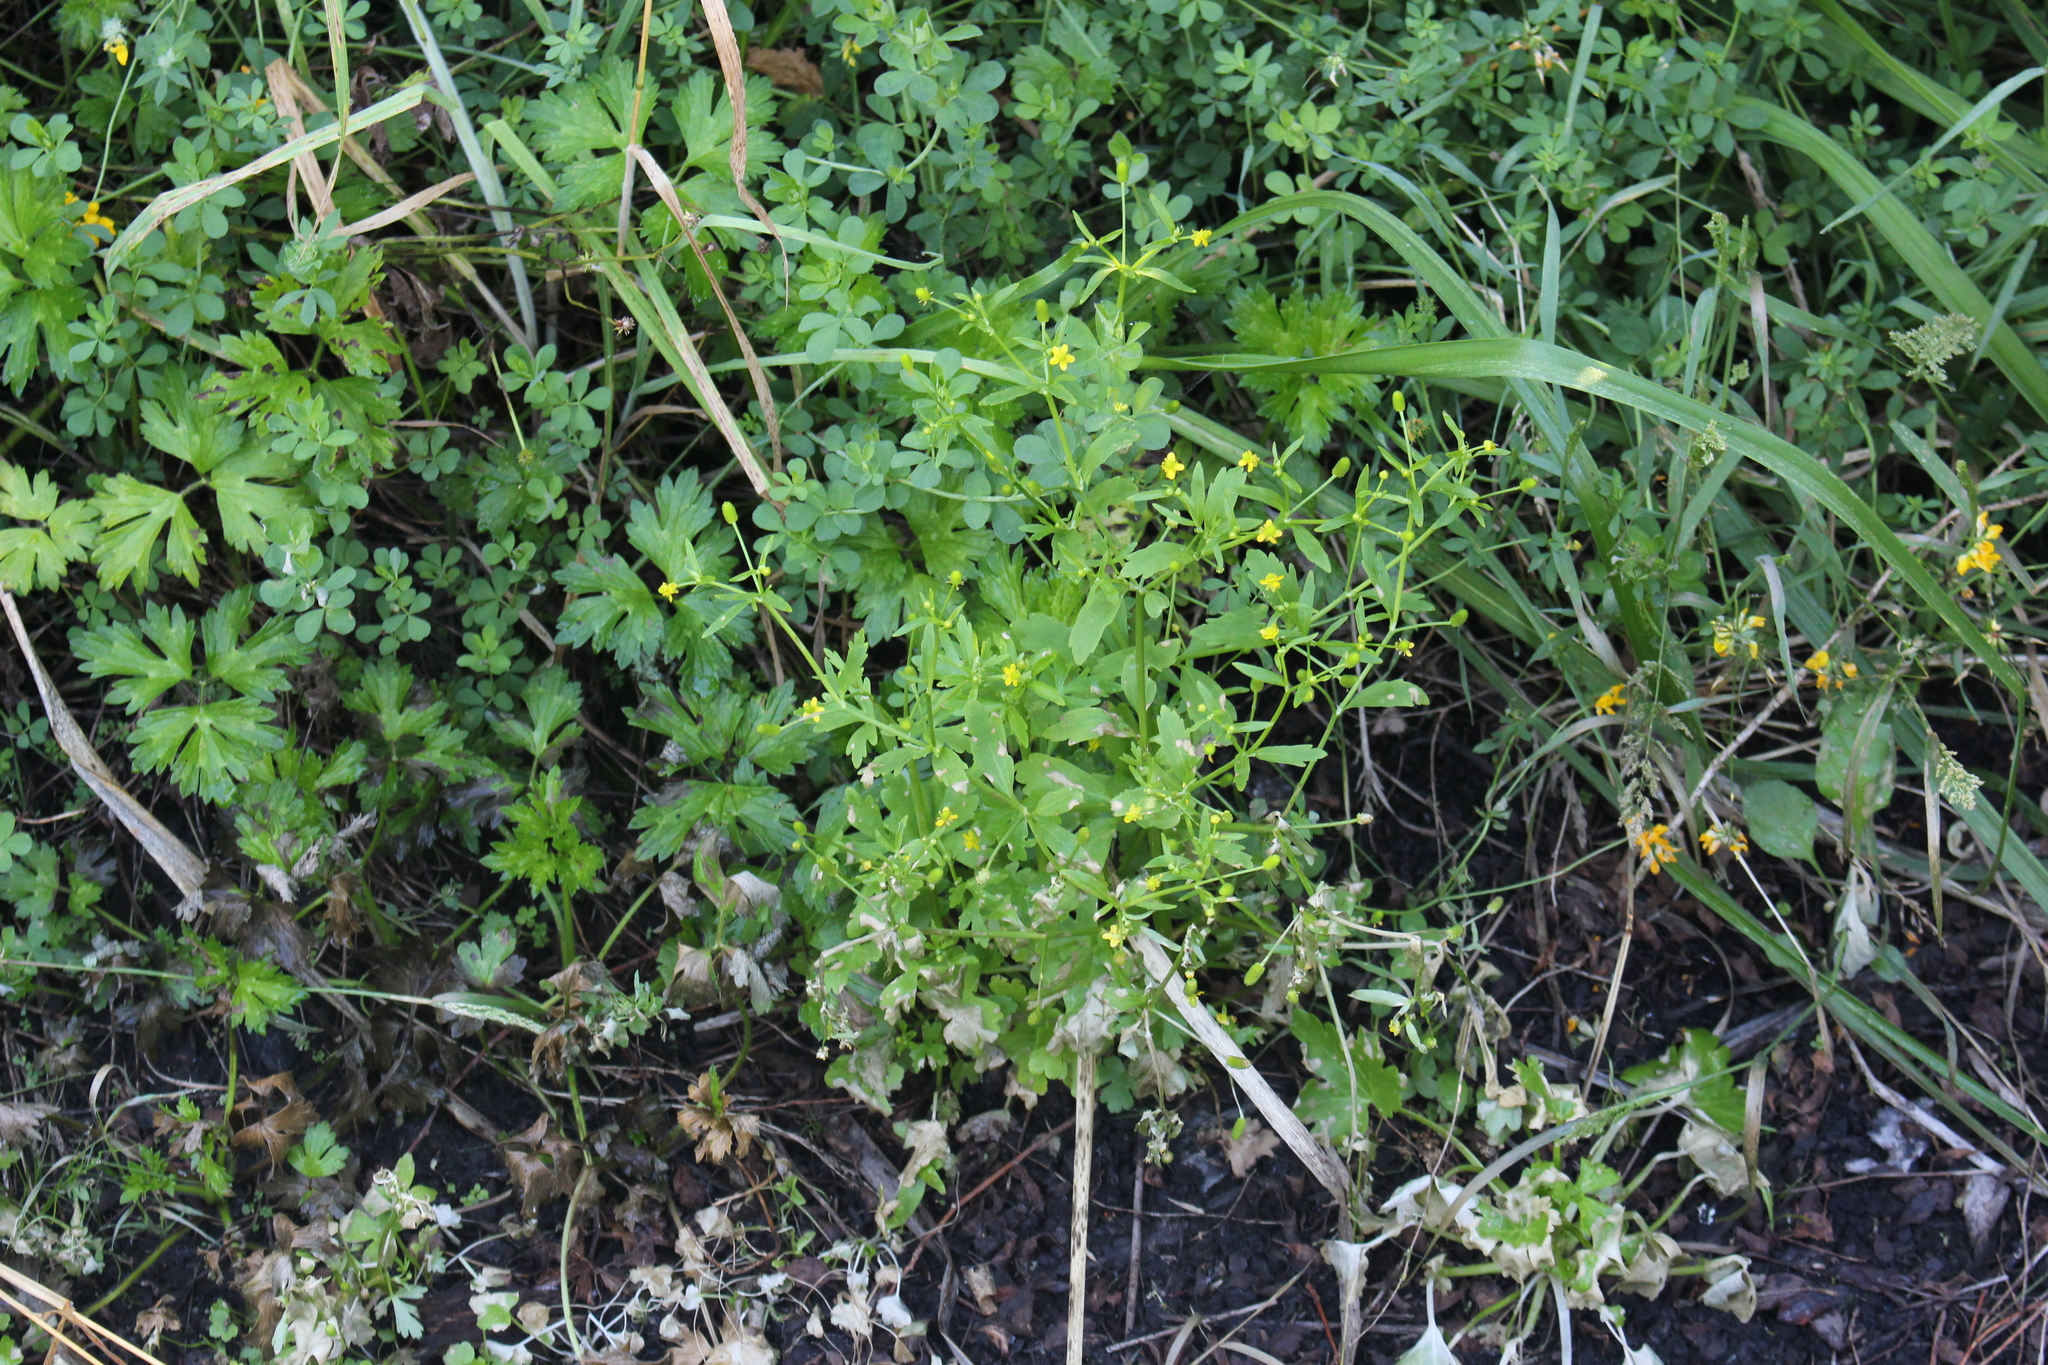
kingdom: Plantae
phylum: Tracheophyta
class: Magnoliopsida
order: Ranunculales
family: Ranunculaceae
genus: Ranunculus
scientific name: Ranunculus sceleratus
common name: Celery-leaved buttercup
